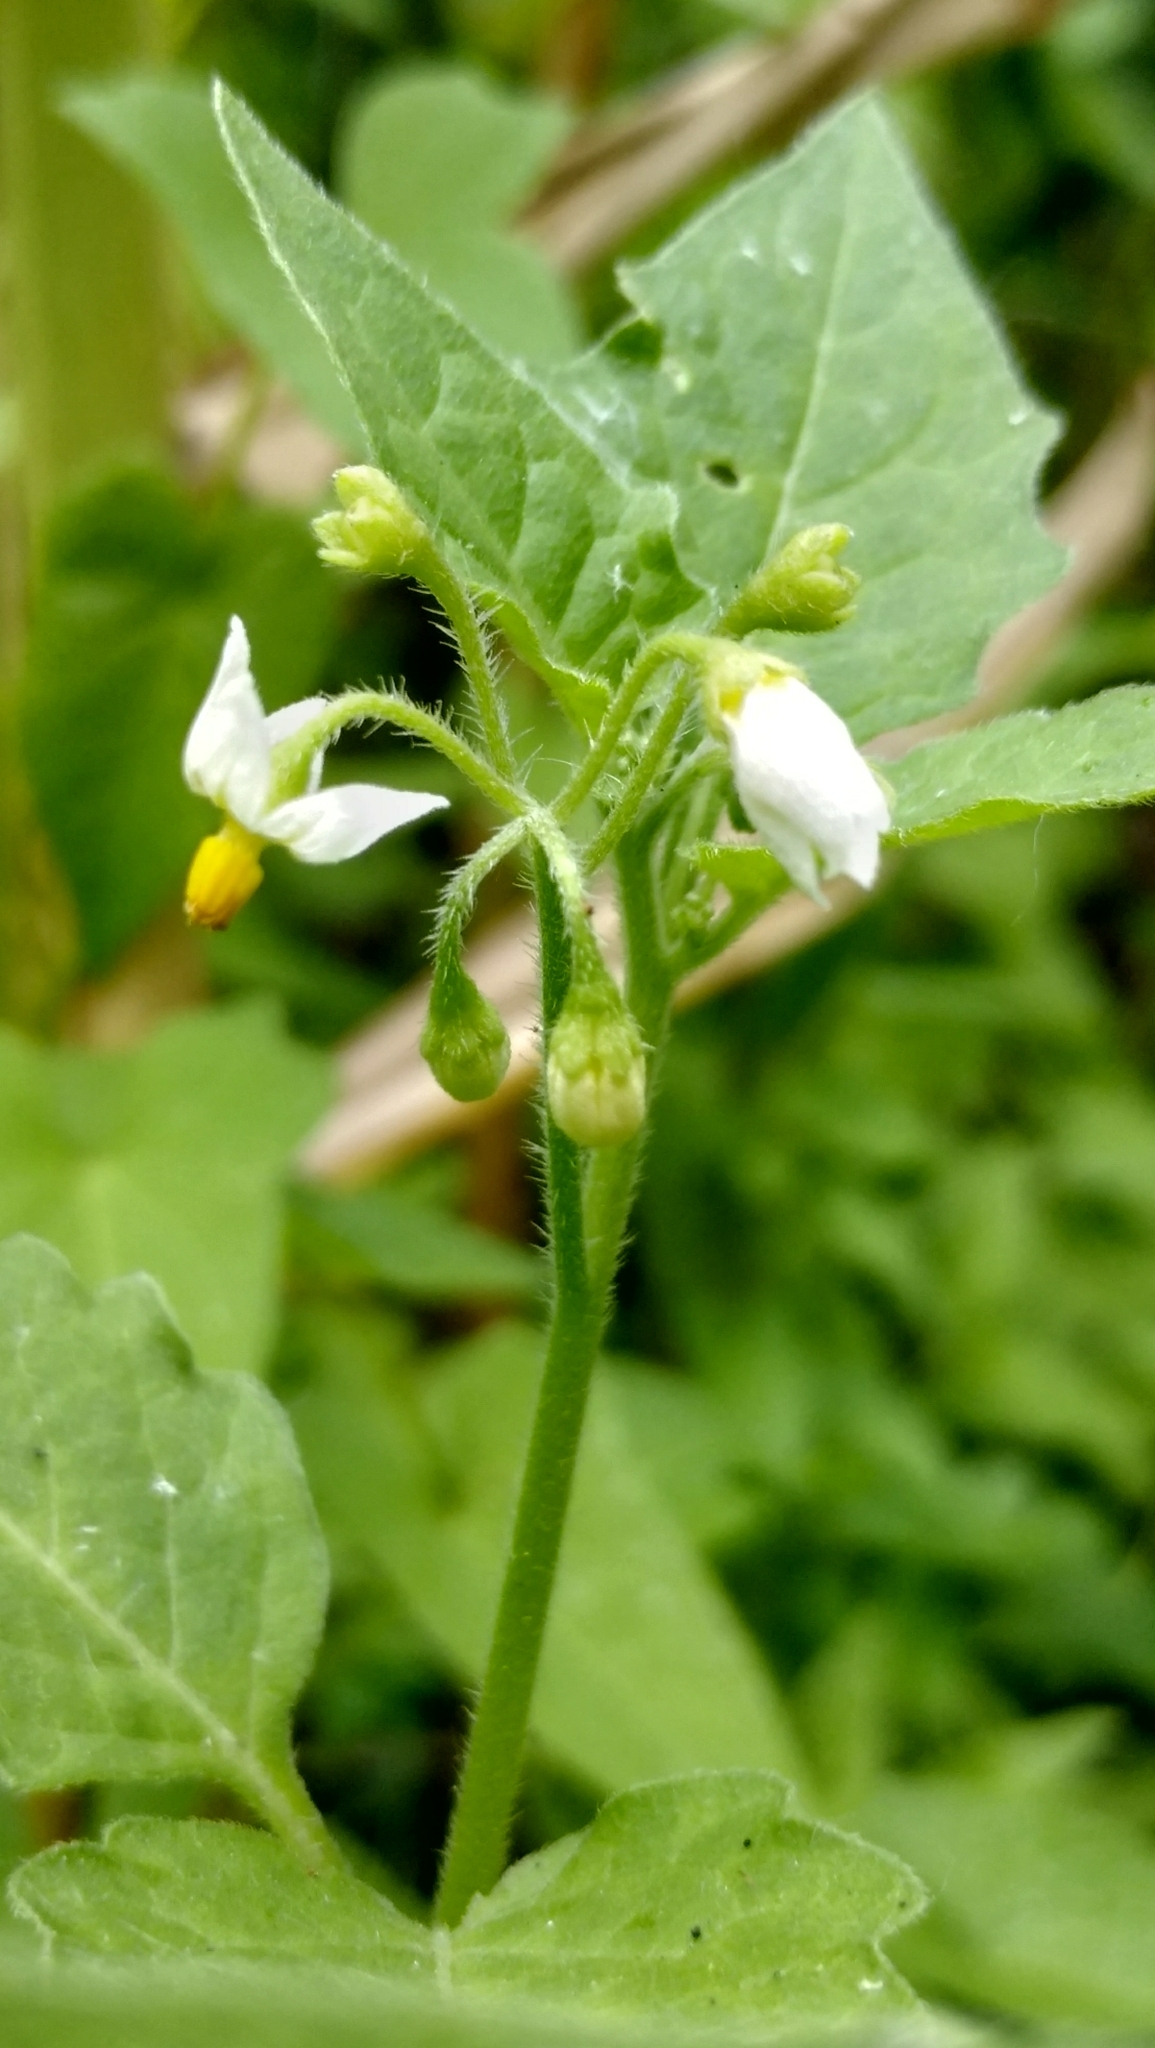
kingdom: Plantae
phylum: Tracheophyta
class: Magnoliopsida
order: Solanales
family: Solanaceae
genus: Solanum
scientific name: Solanum nigrum
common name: Black nightshade
